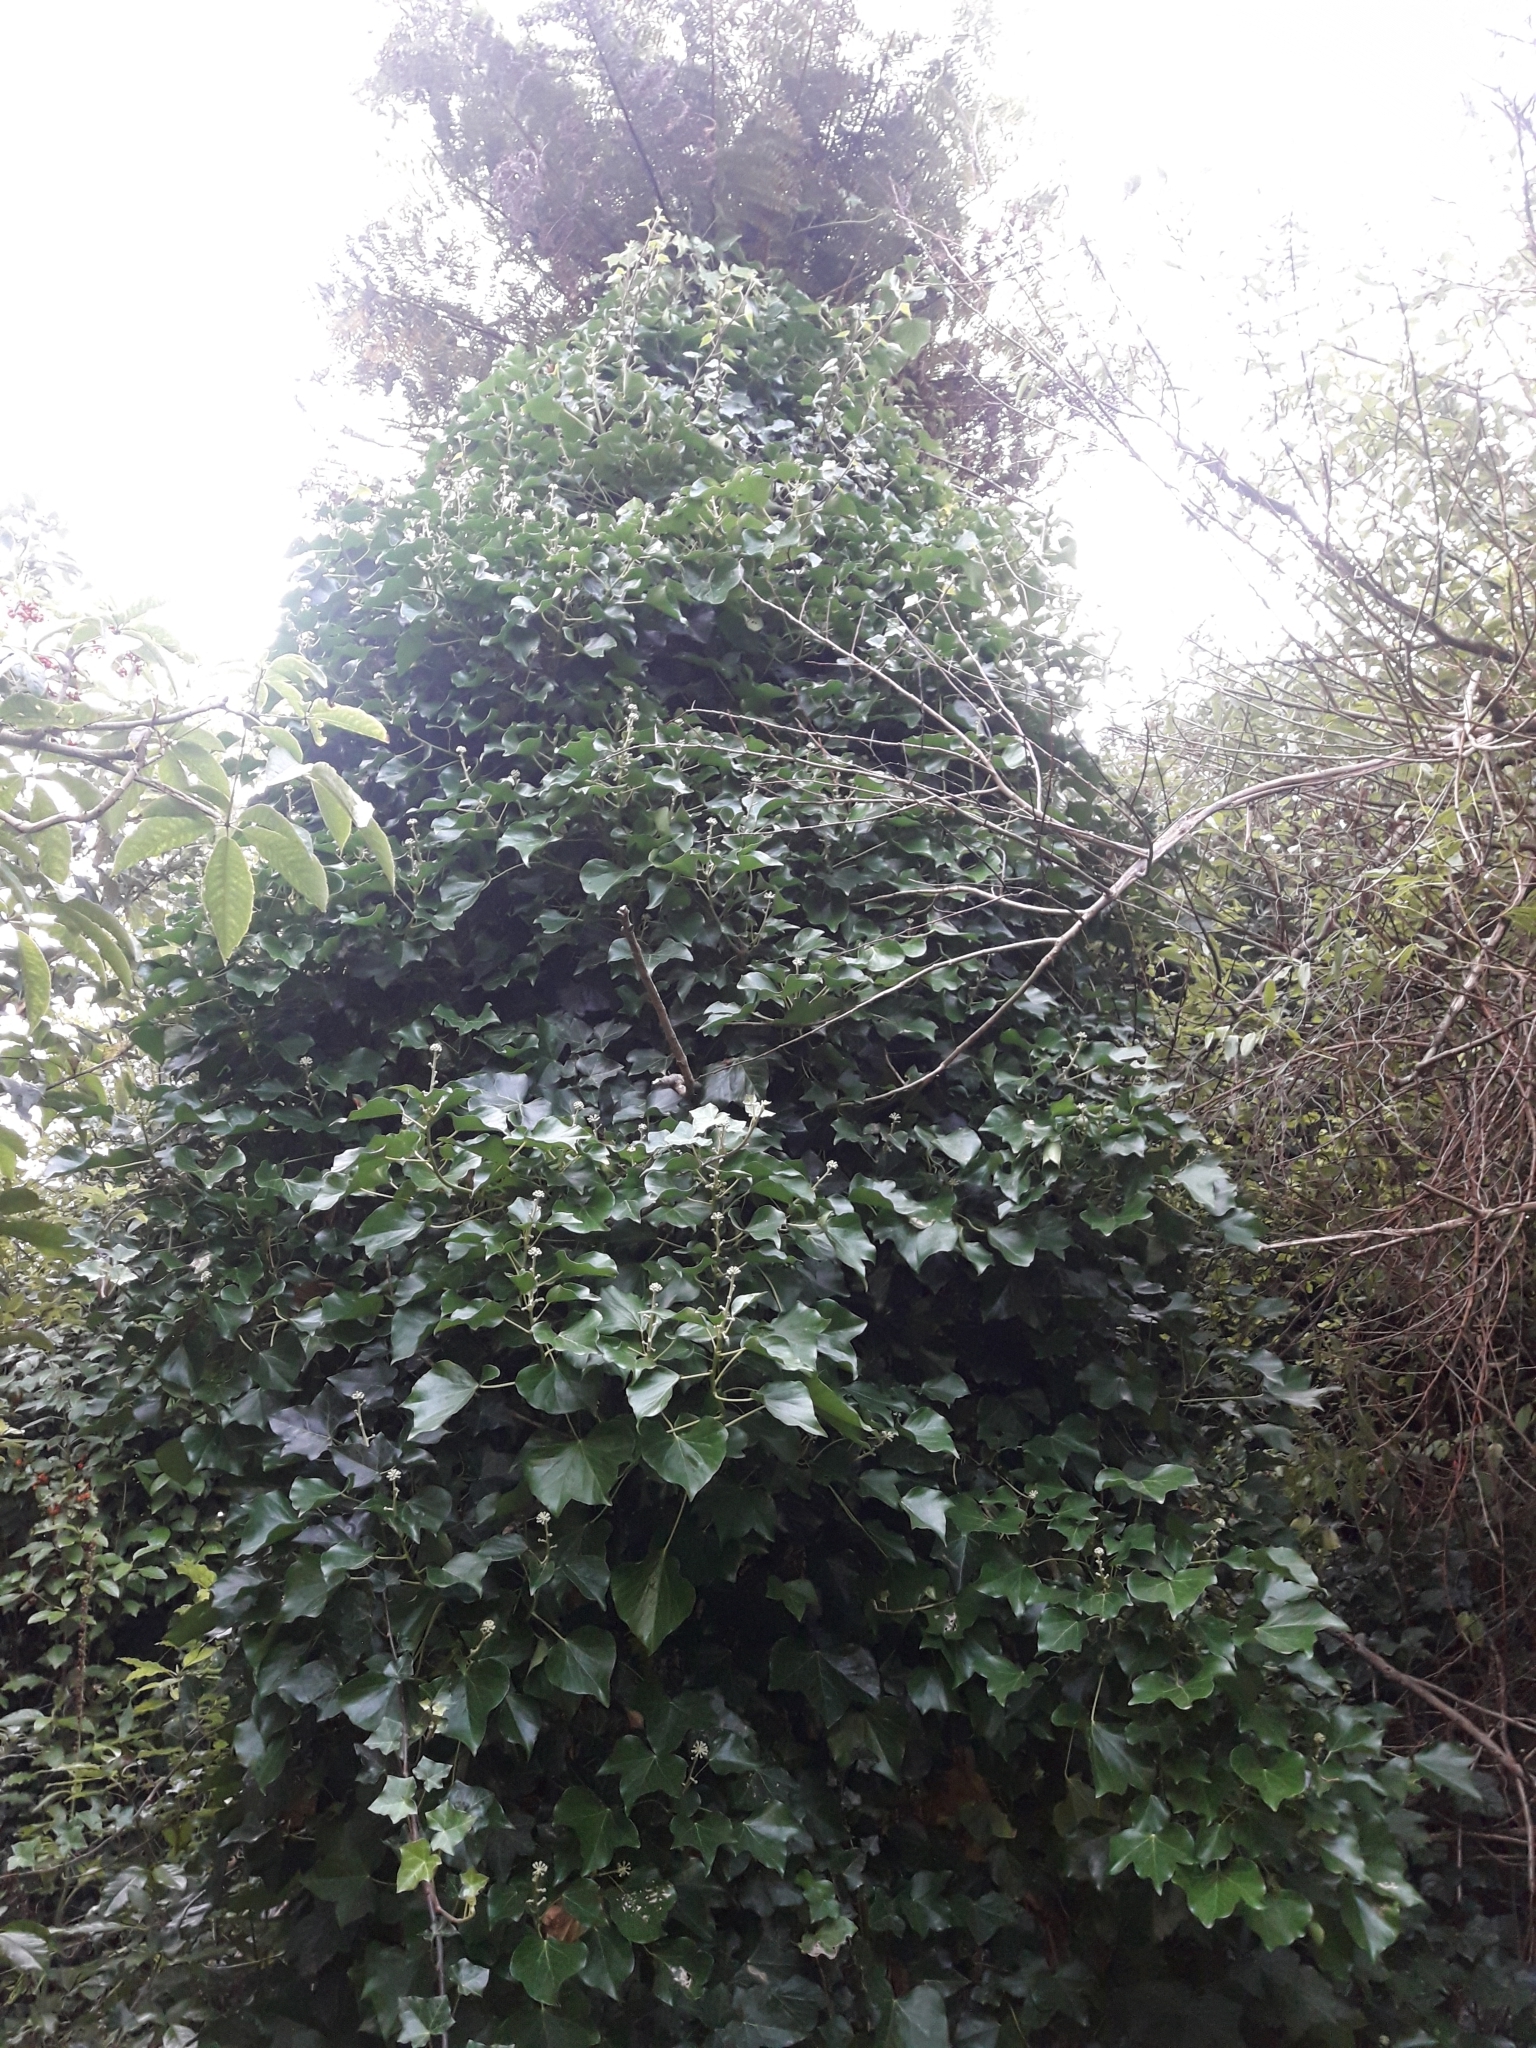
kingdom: Plantae
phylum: Tracheophyta
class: Magnoliopsida
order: Apiales
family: Araliaceae
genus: Hedera
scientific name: Hedera helix
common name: Ivy
